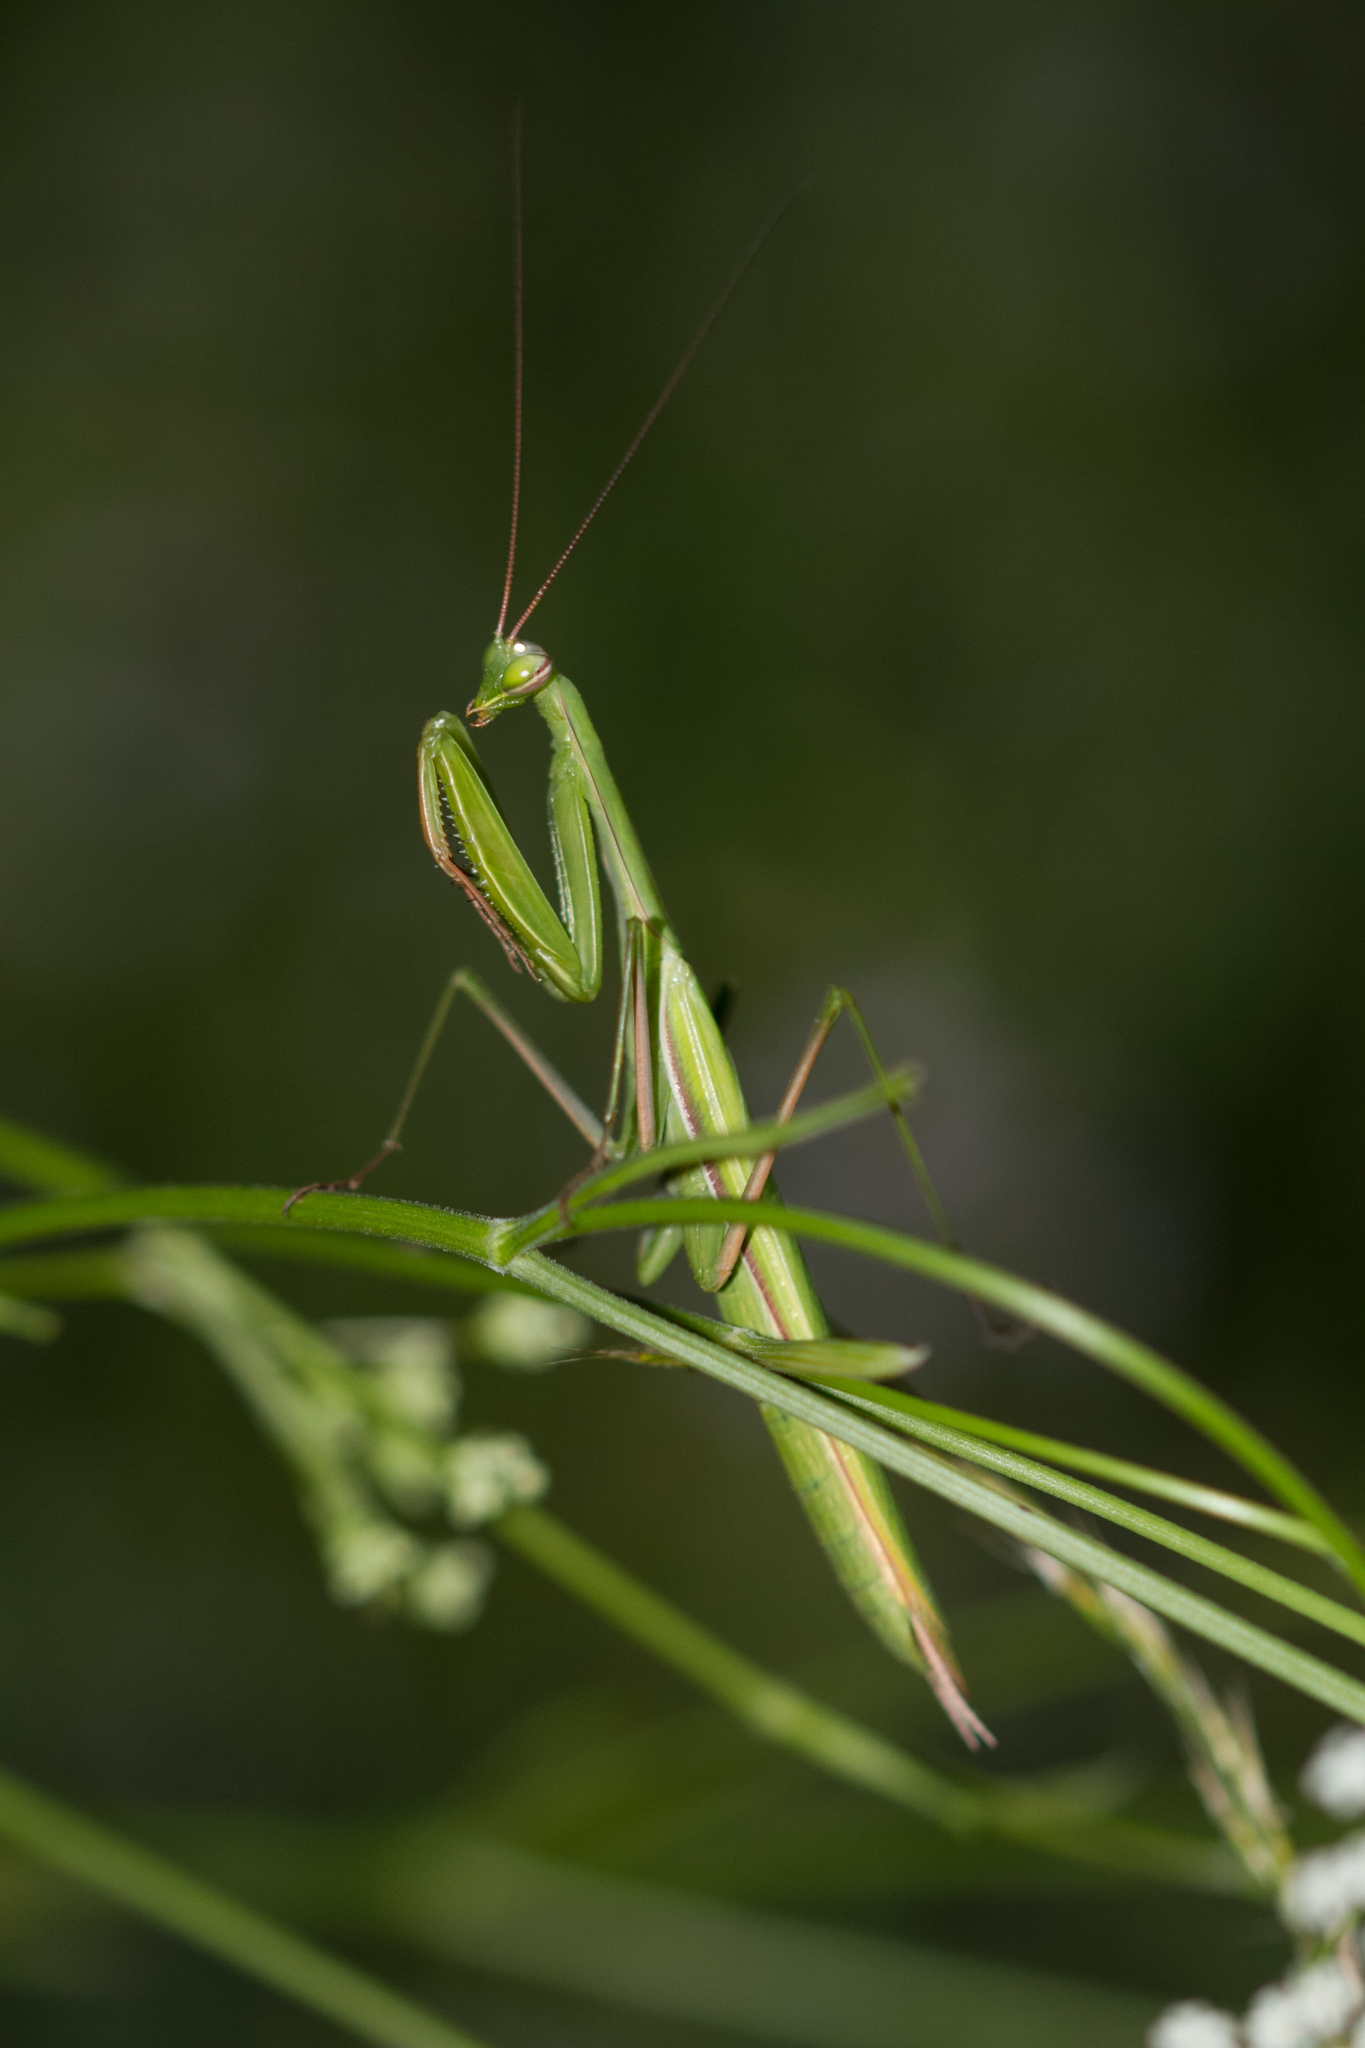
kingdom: Animalia
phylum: Arthropoda
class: Insecta
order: Mantodea
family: Mantidae
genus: Mantis
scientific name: Mantis religiosa
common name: Praying mantis
